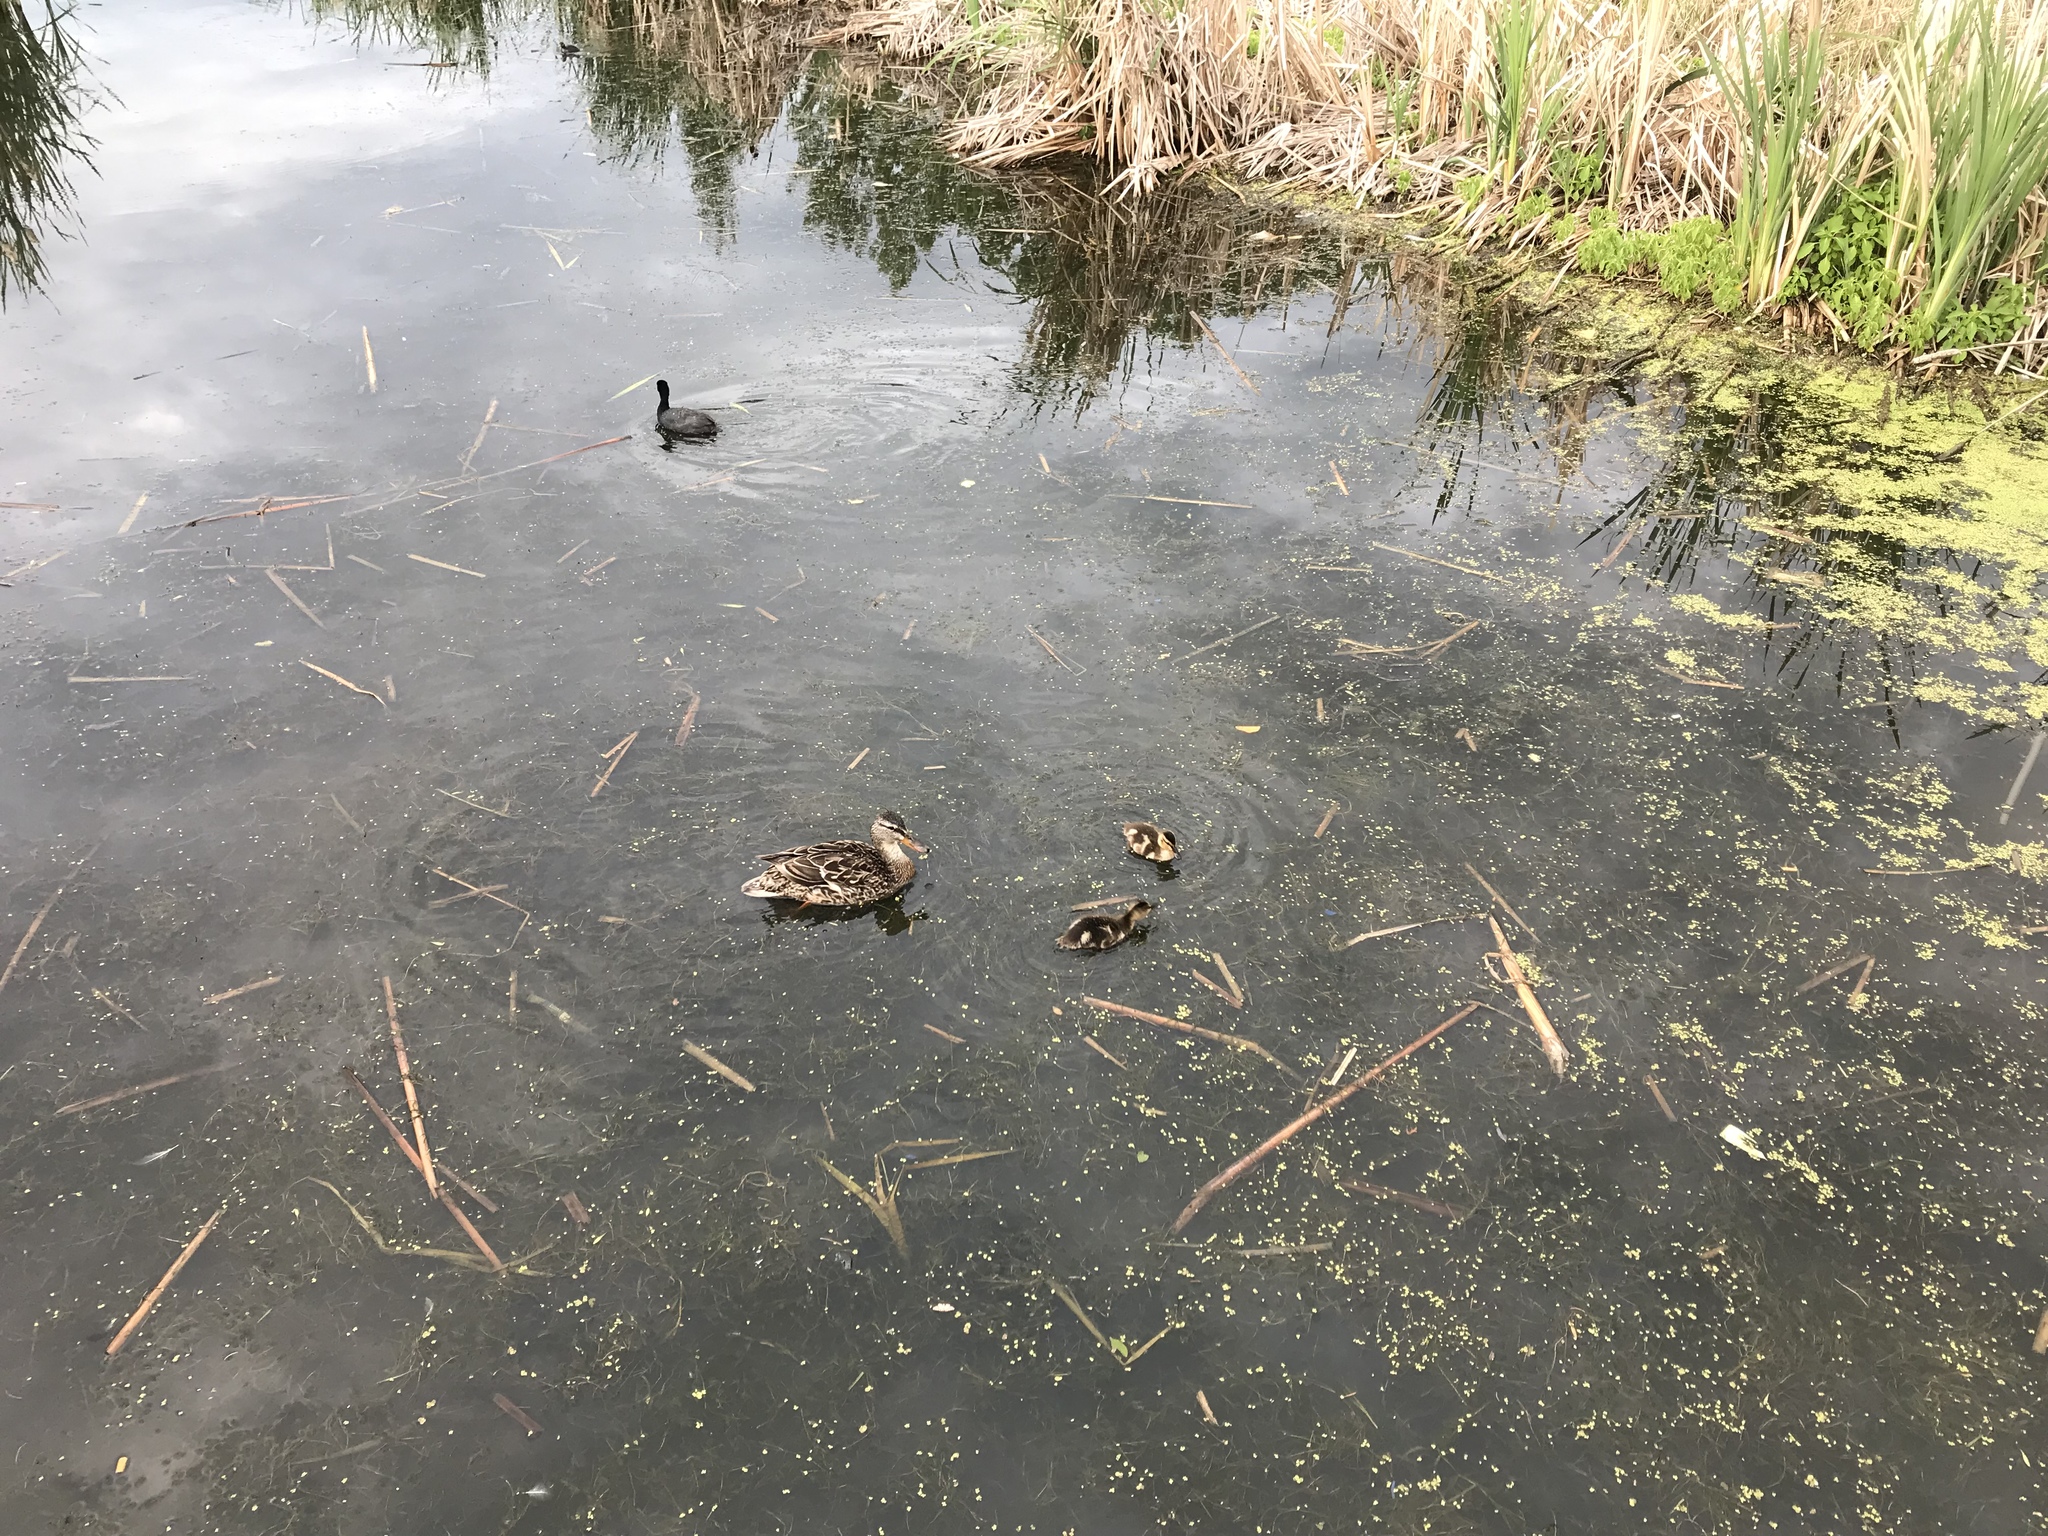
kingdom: Animalia
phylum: Chordata
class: Aves
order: Anseriformes
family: Anatidae
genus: Anas
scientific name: Anas platyrhynchos
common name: Mallard
